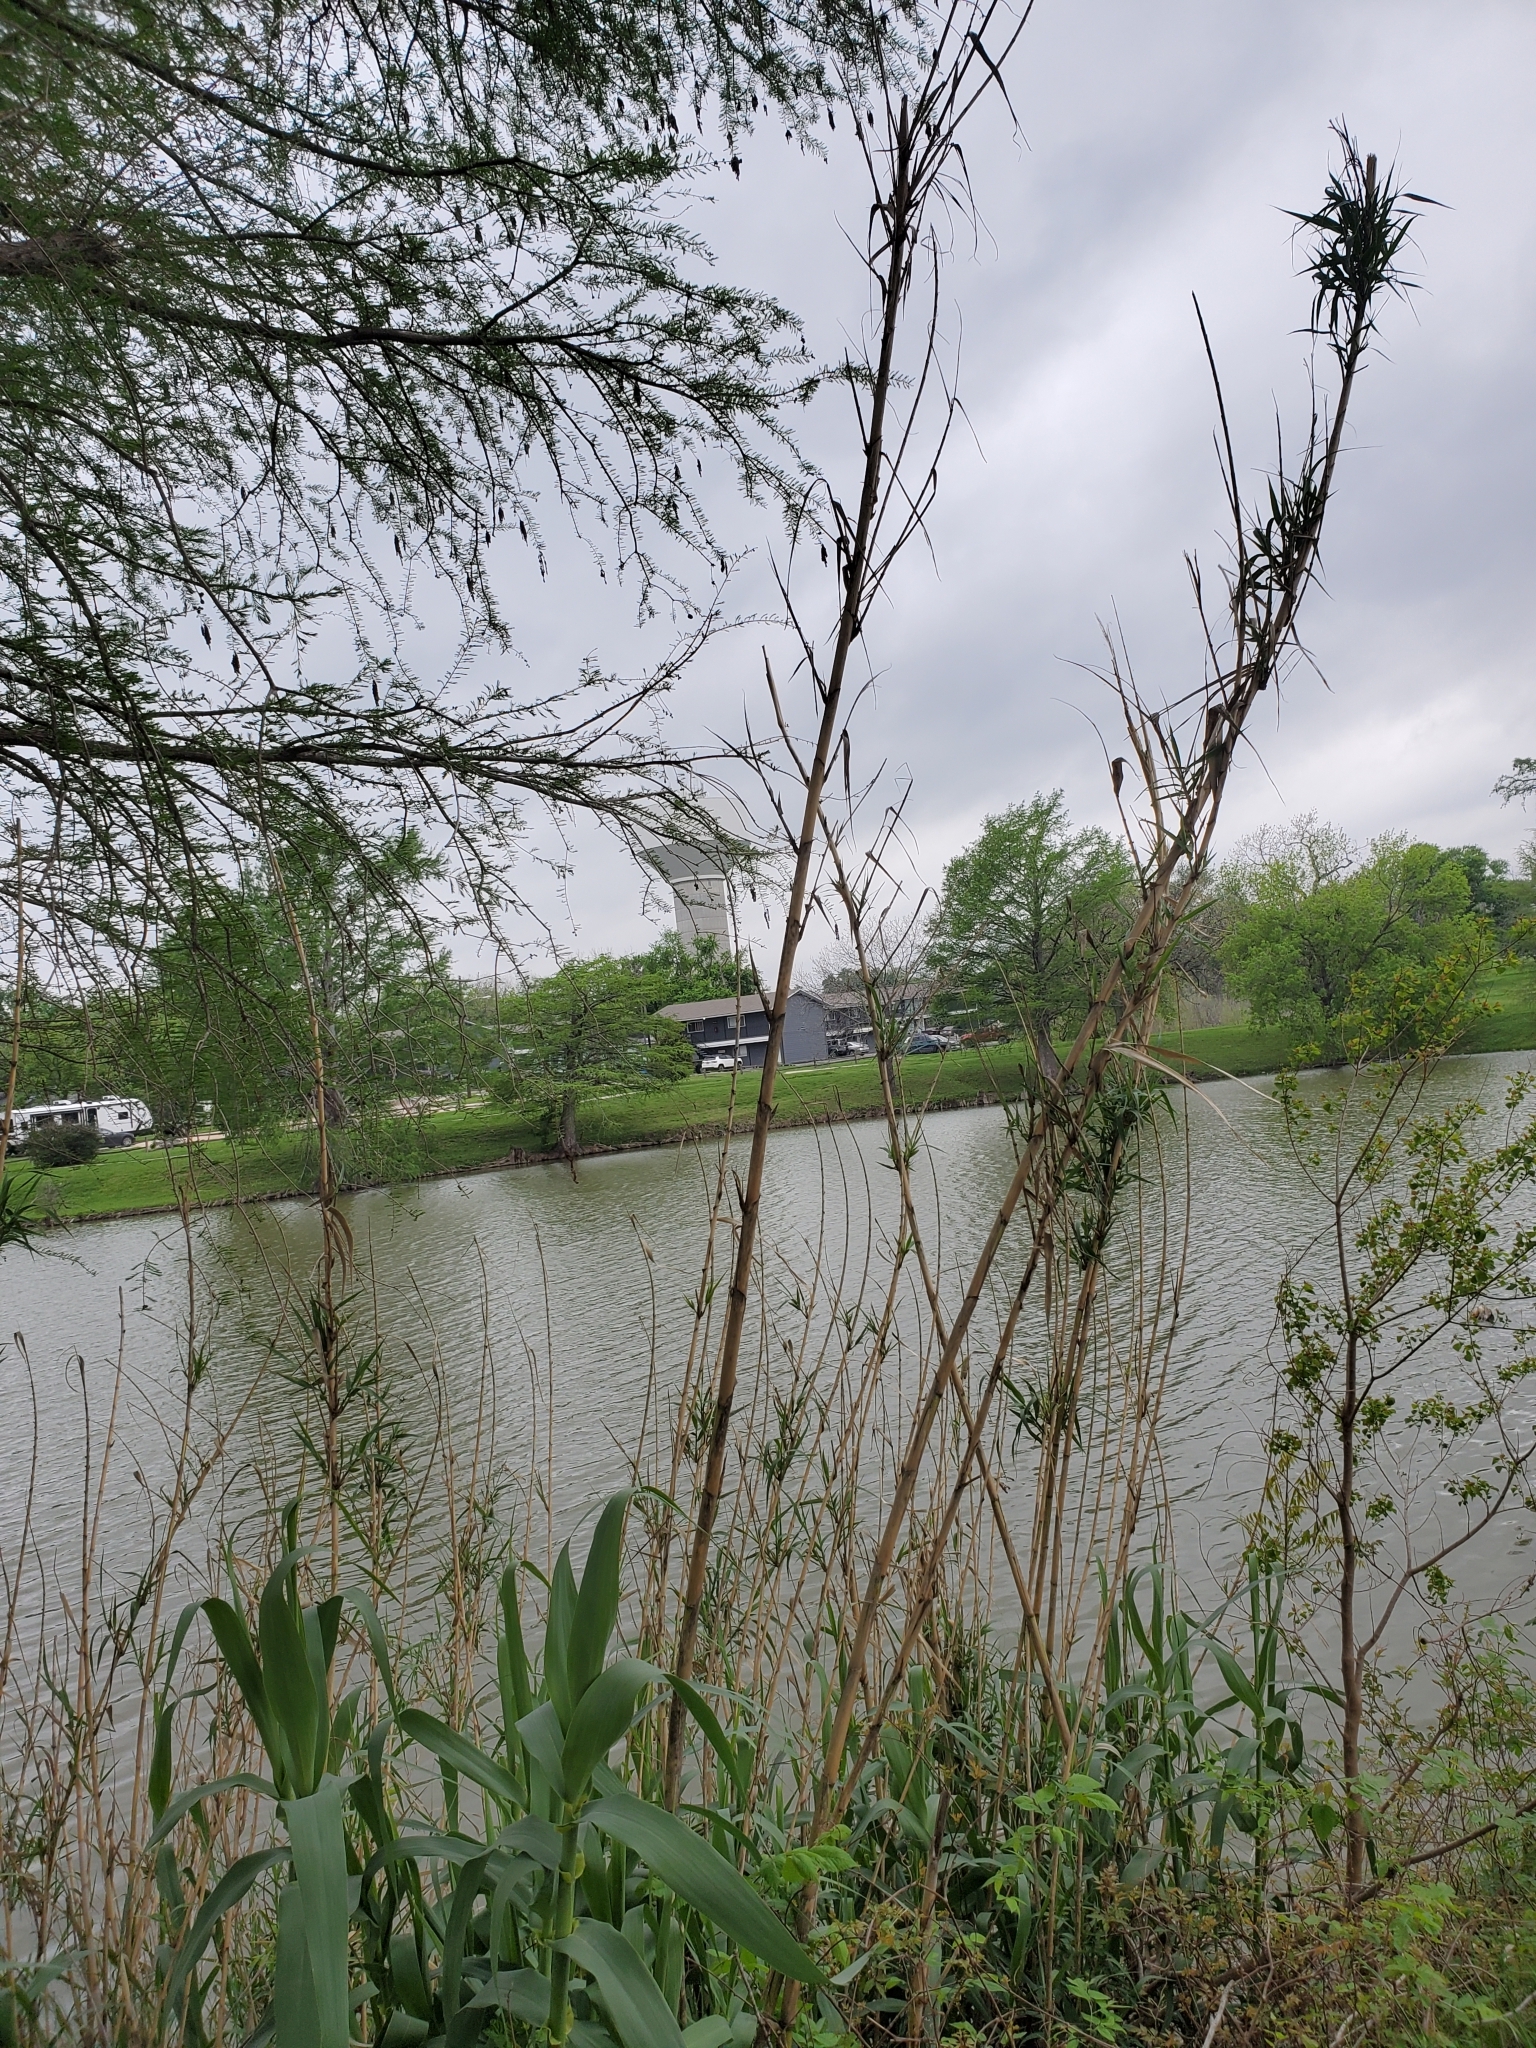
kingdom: Plantae
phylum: Tracheophyta
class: Liliopsida
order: Poales
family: Poaceae
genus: Arundo
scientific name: Arundo donax
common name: Giant reed
